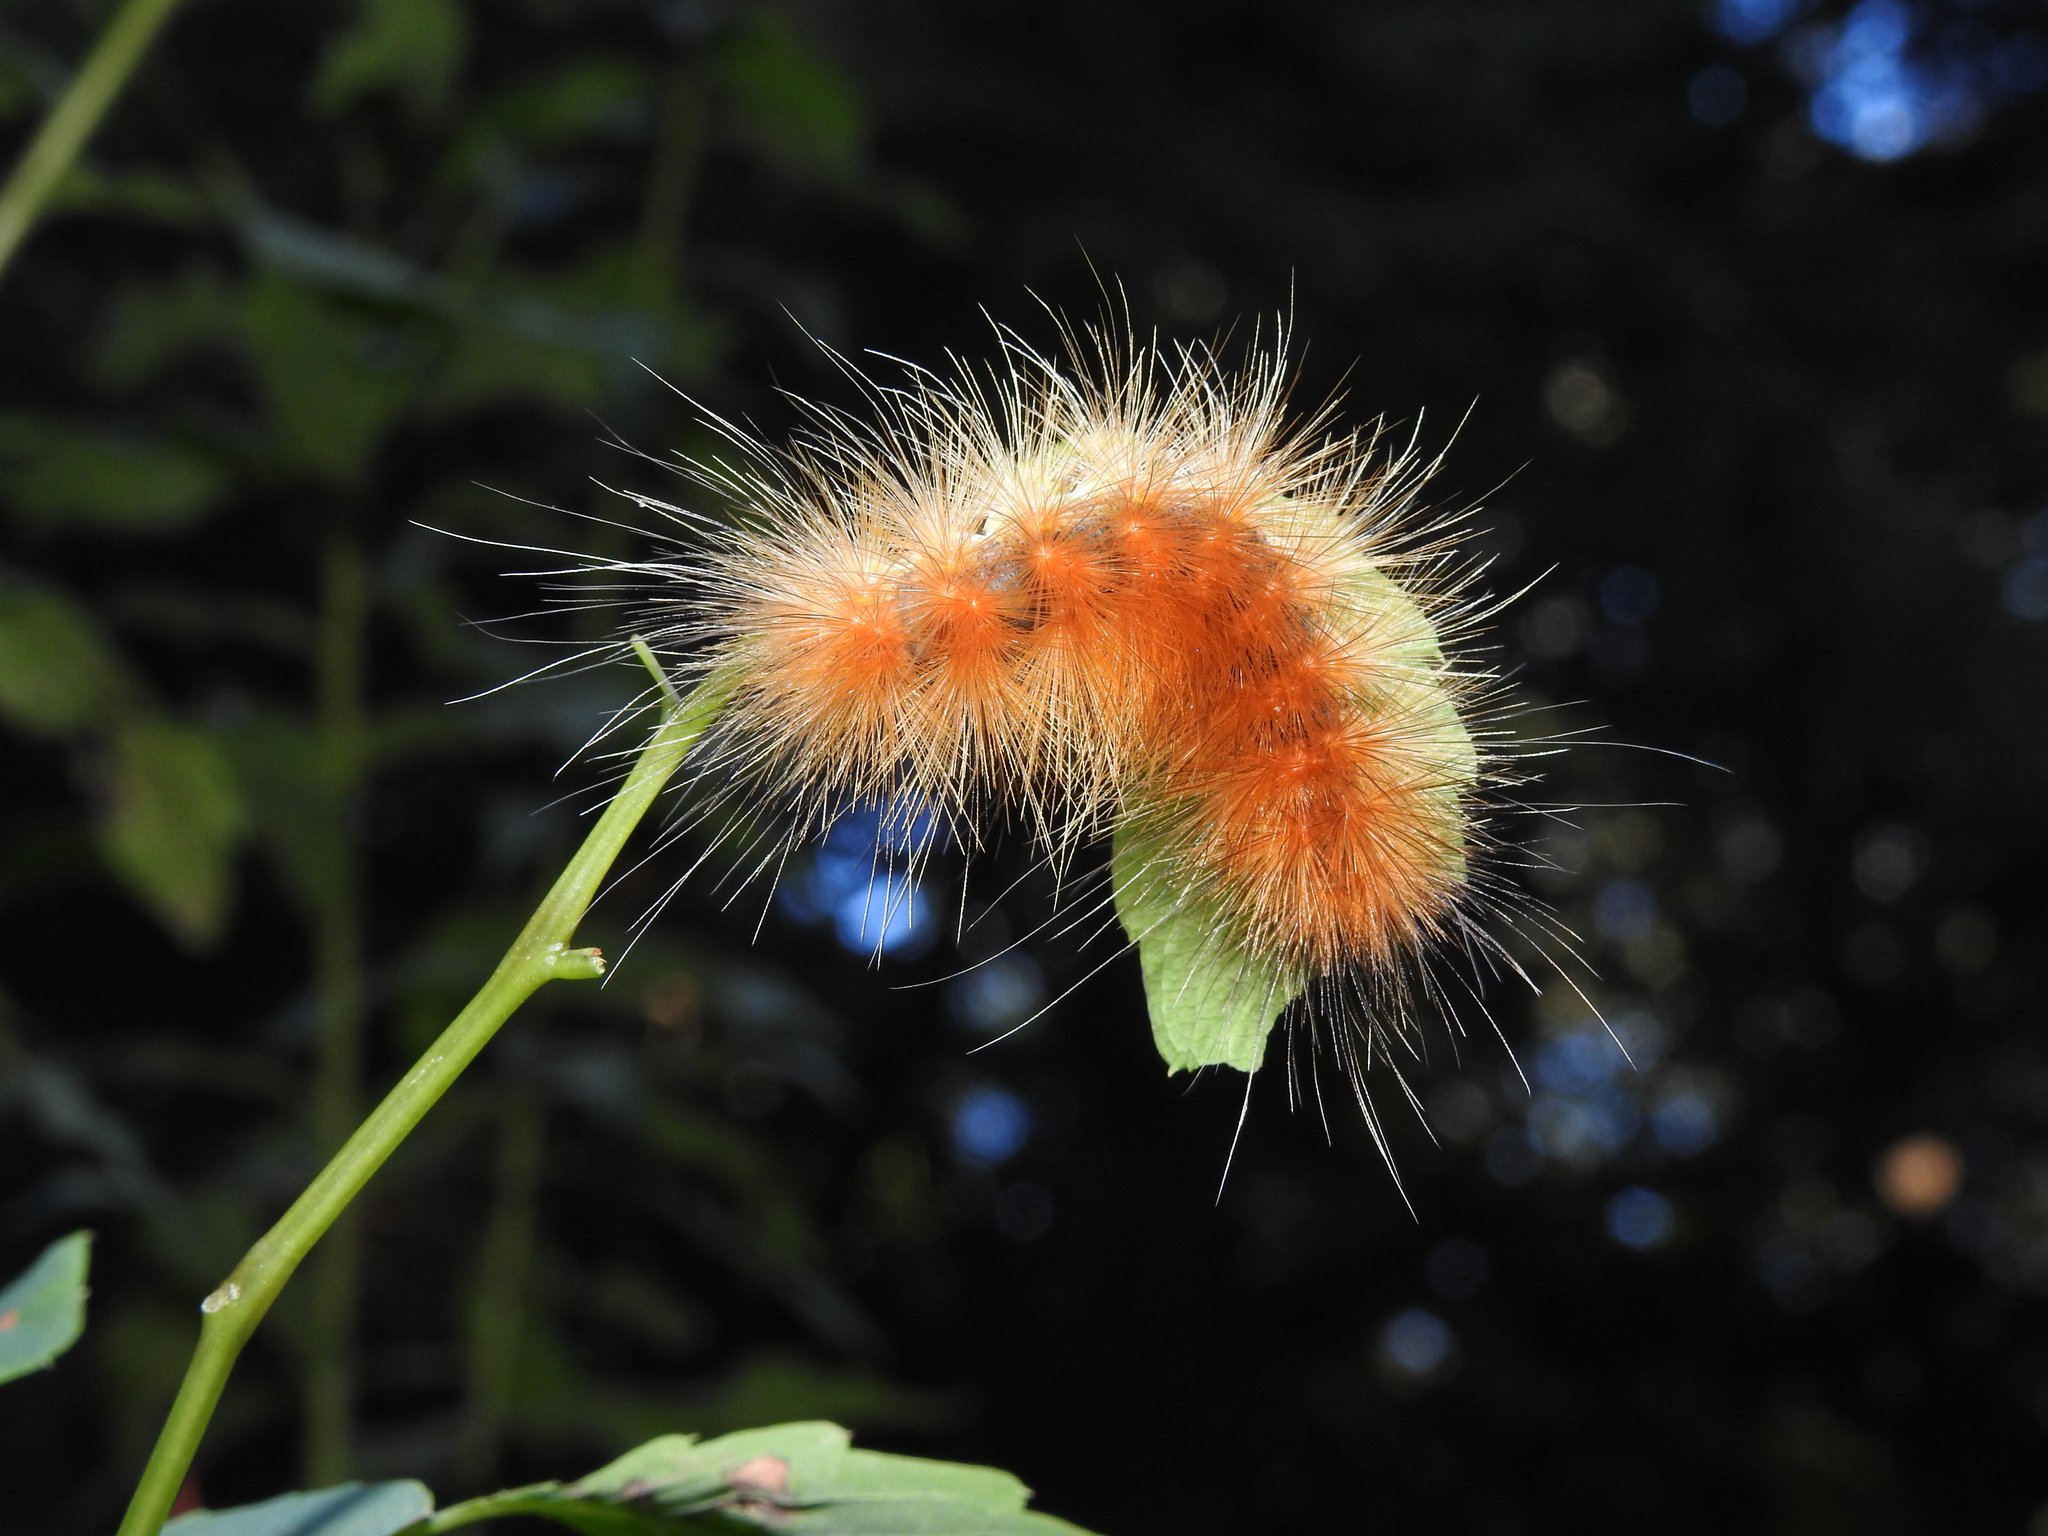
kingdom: Animalia
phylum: Arthropoda
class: Insecta
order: Lepidoptera
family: Erebidae
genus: Spilosoma
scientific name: Spilosoma virginica
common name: Virginia tiger moth
